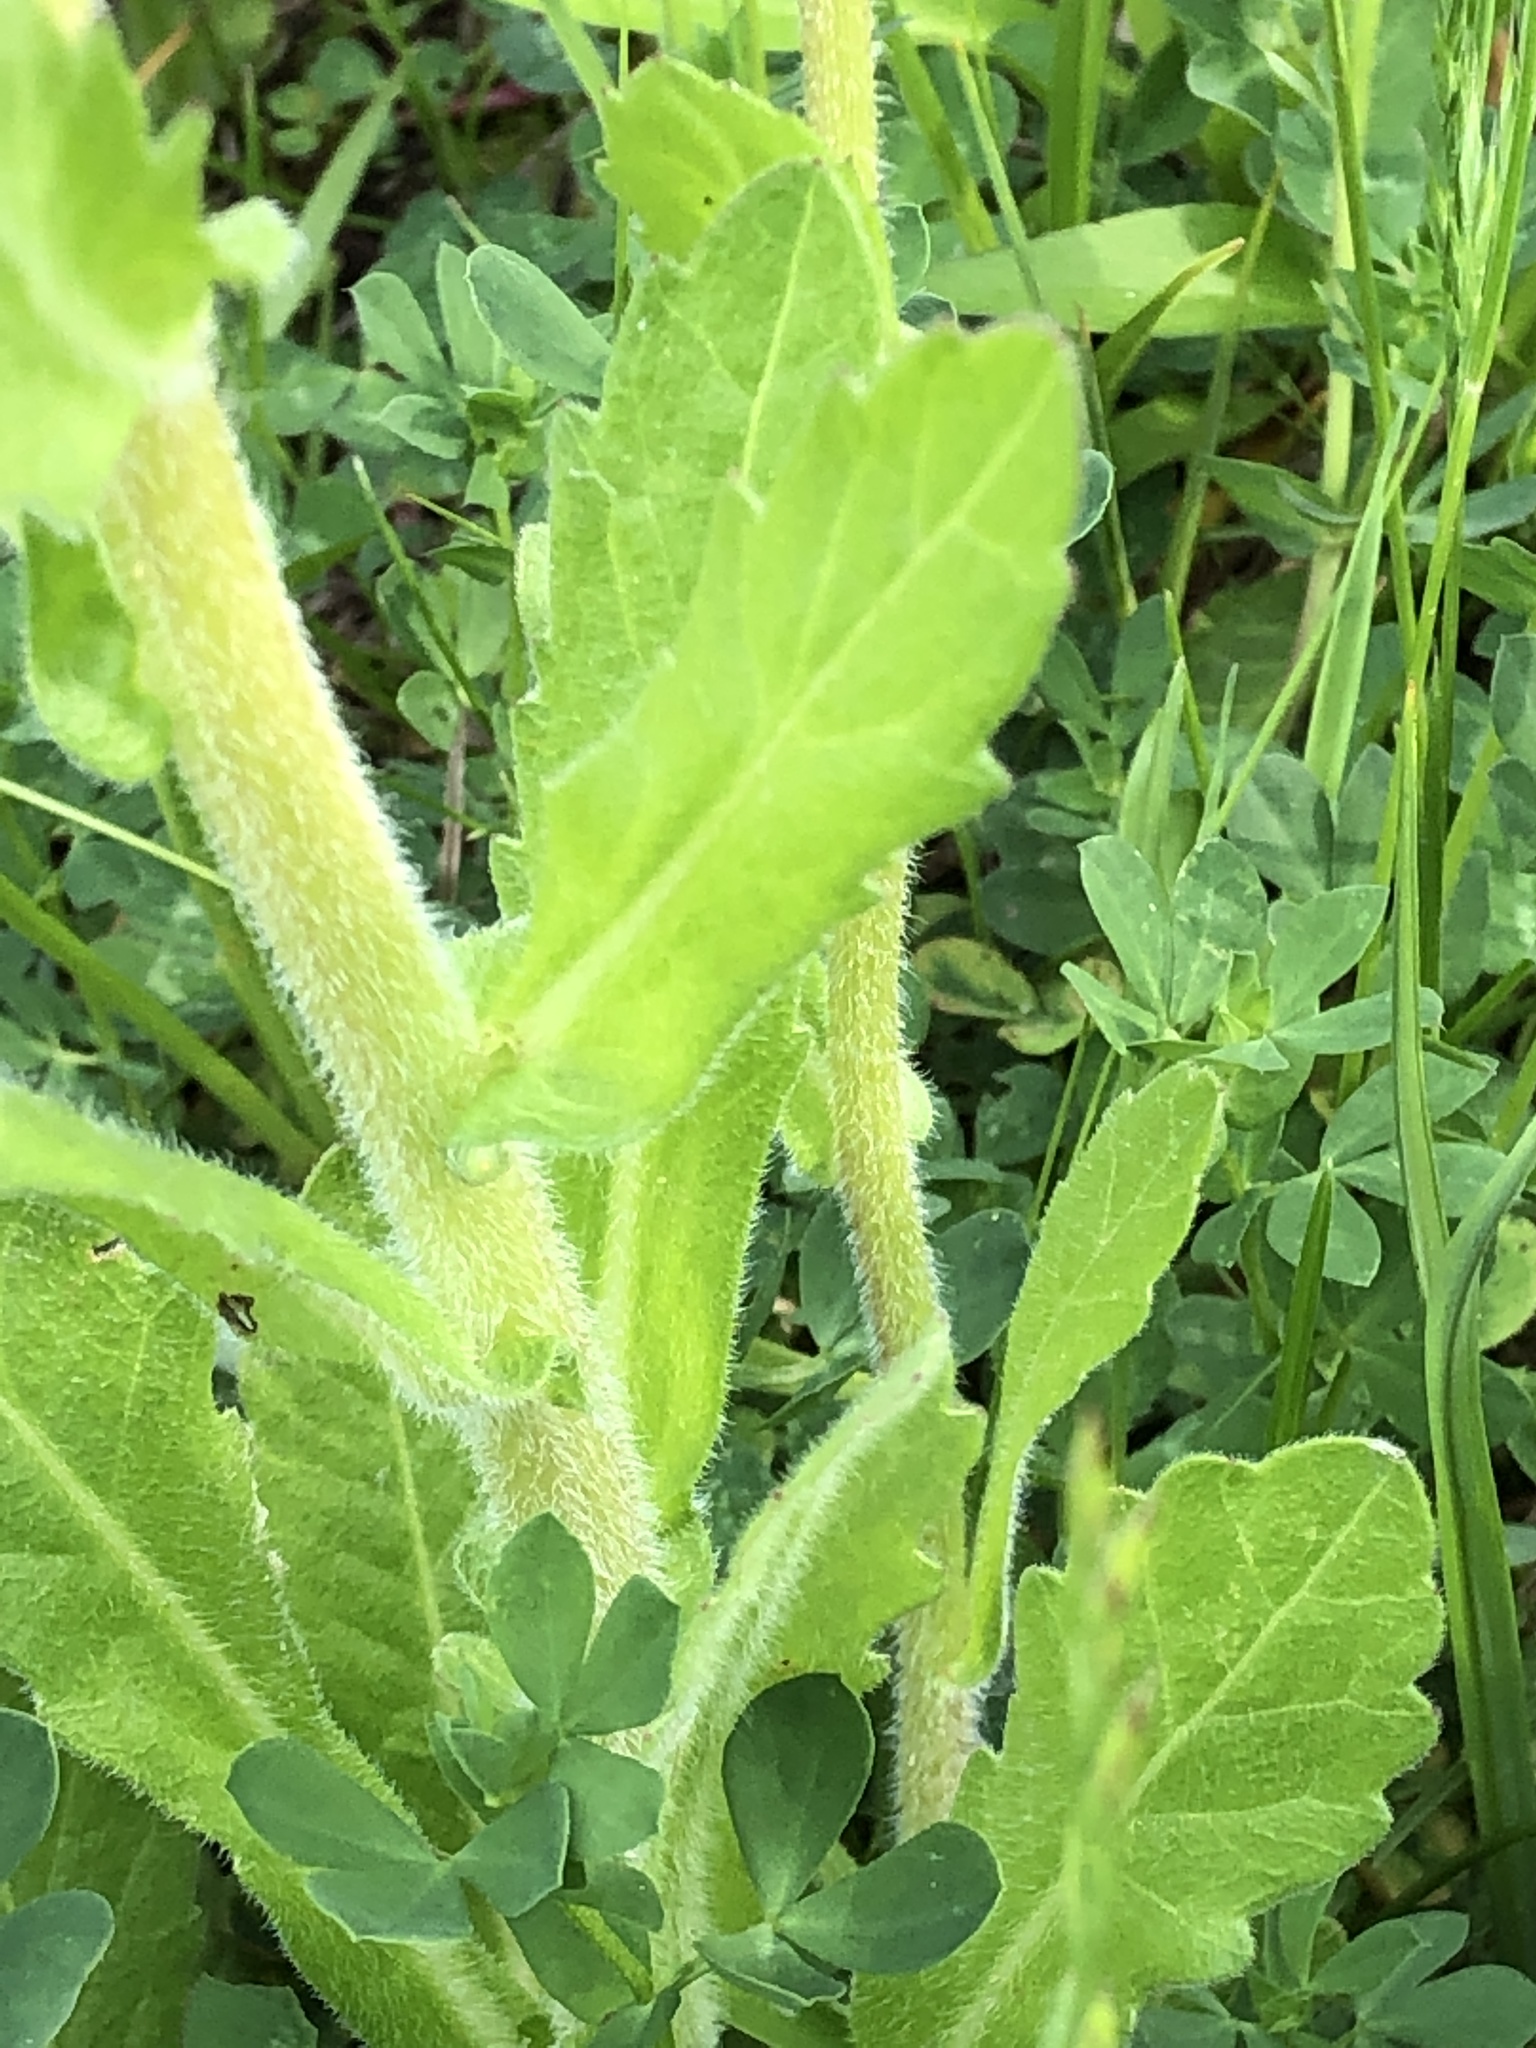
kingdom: Plantae
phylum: Tracheophyta
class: Magnoliopsida
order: Asterales
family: Asteraceae
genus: Erigeron
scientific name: Erigeron philadelphicus
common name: Robin's-plantain
